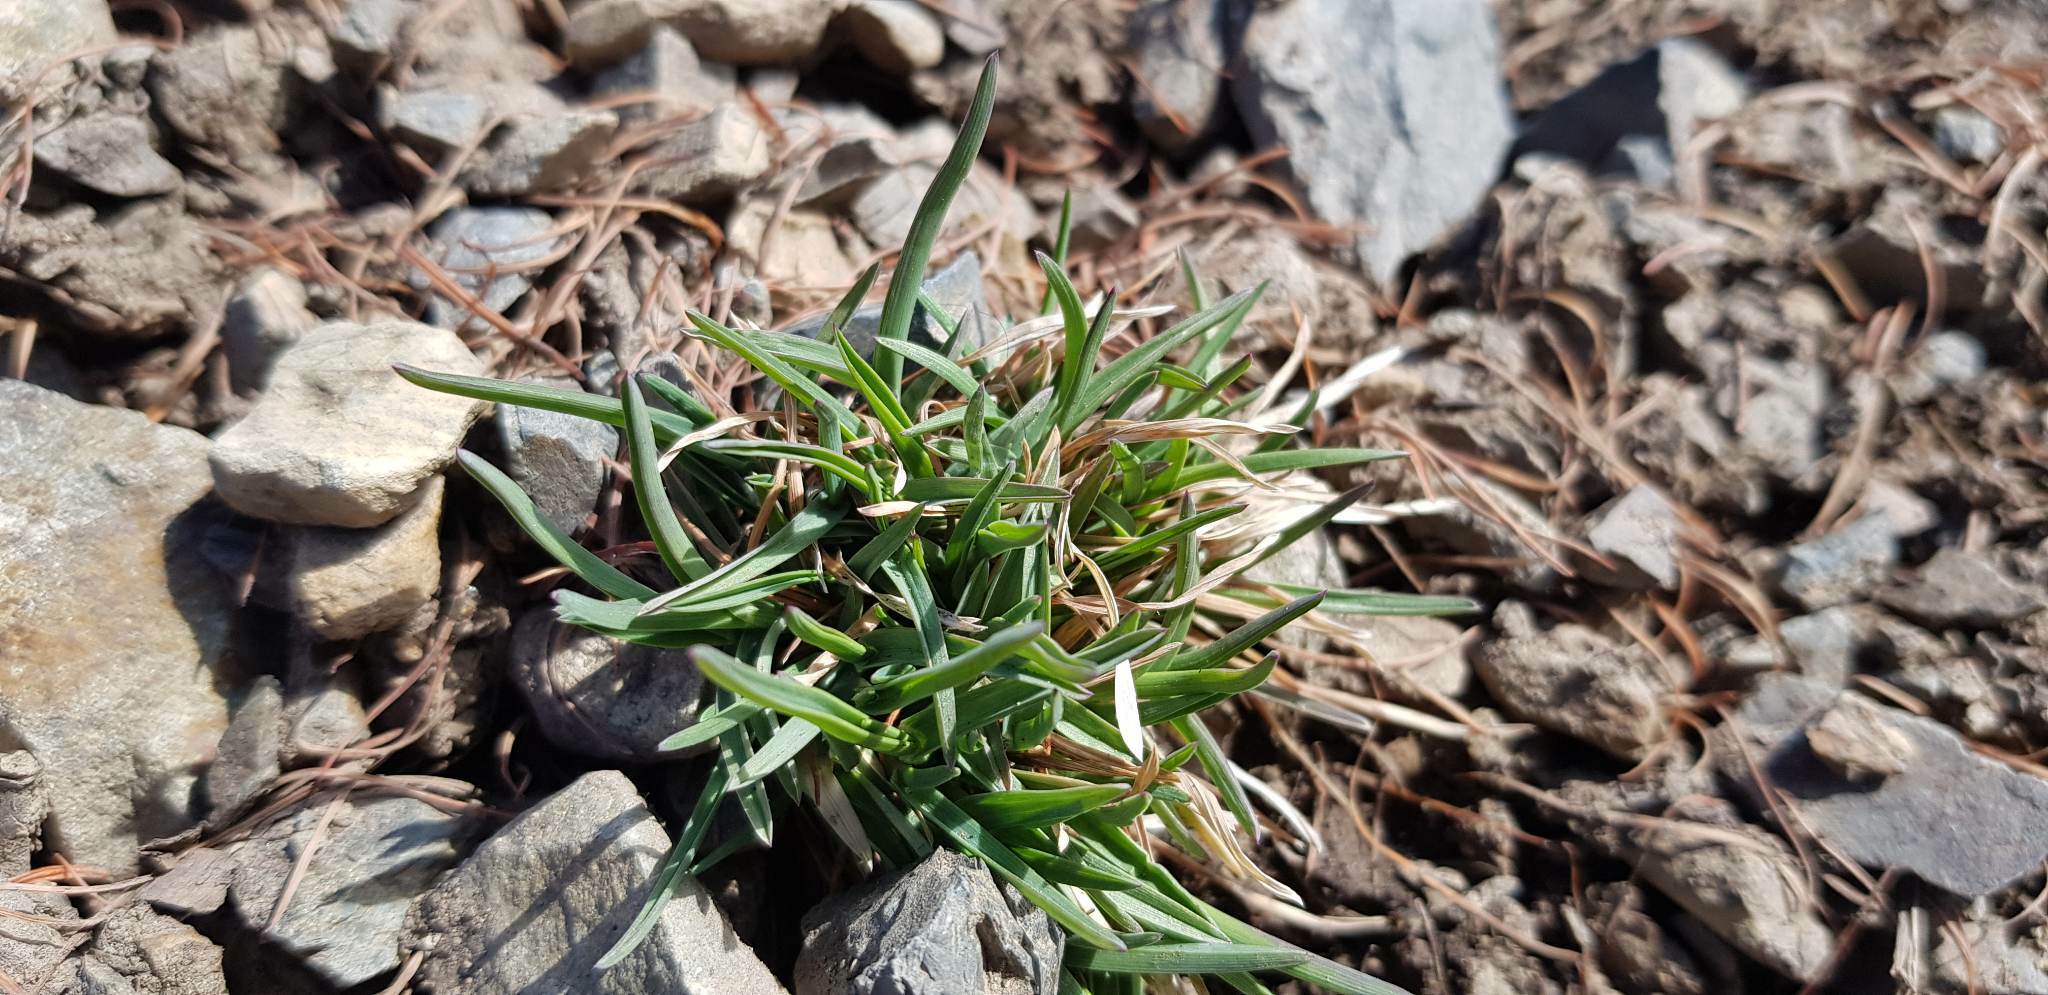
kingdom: Plantae
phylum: Tracheophyta
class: Liliopsida
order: Poales
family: Poaceae
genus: Cleistogenes
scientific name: Cleistogenes squarrosa
